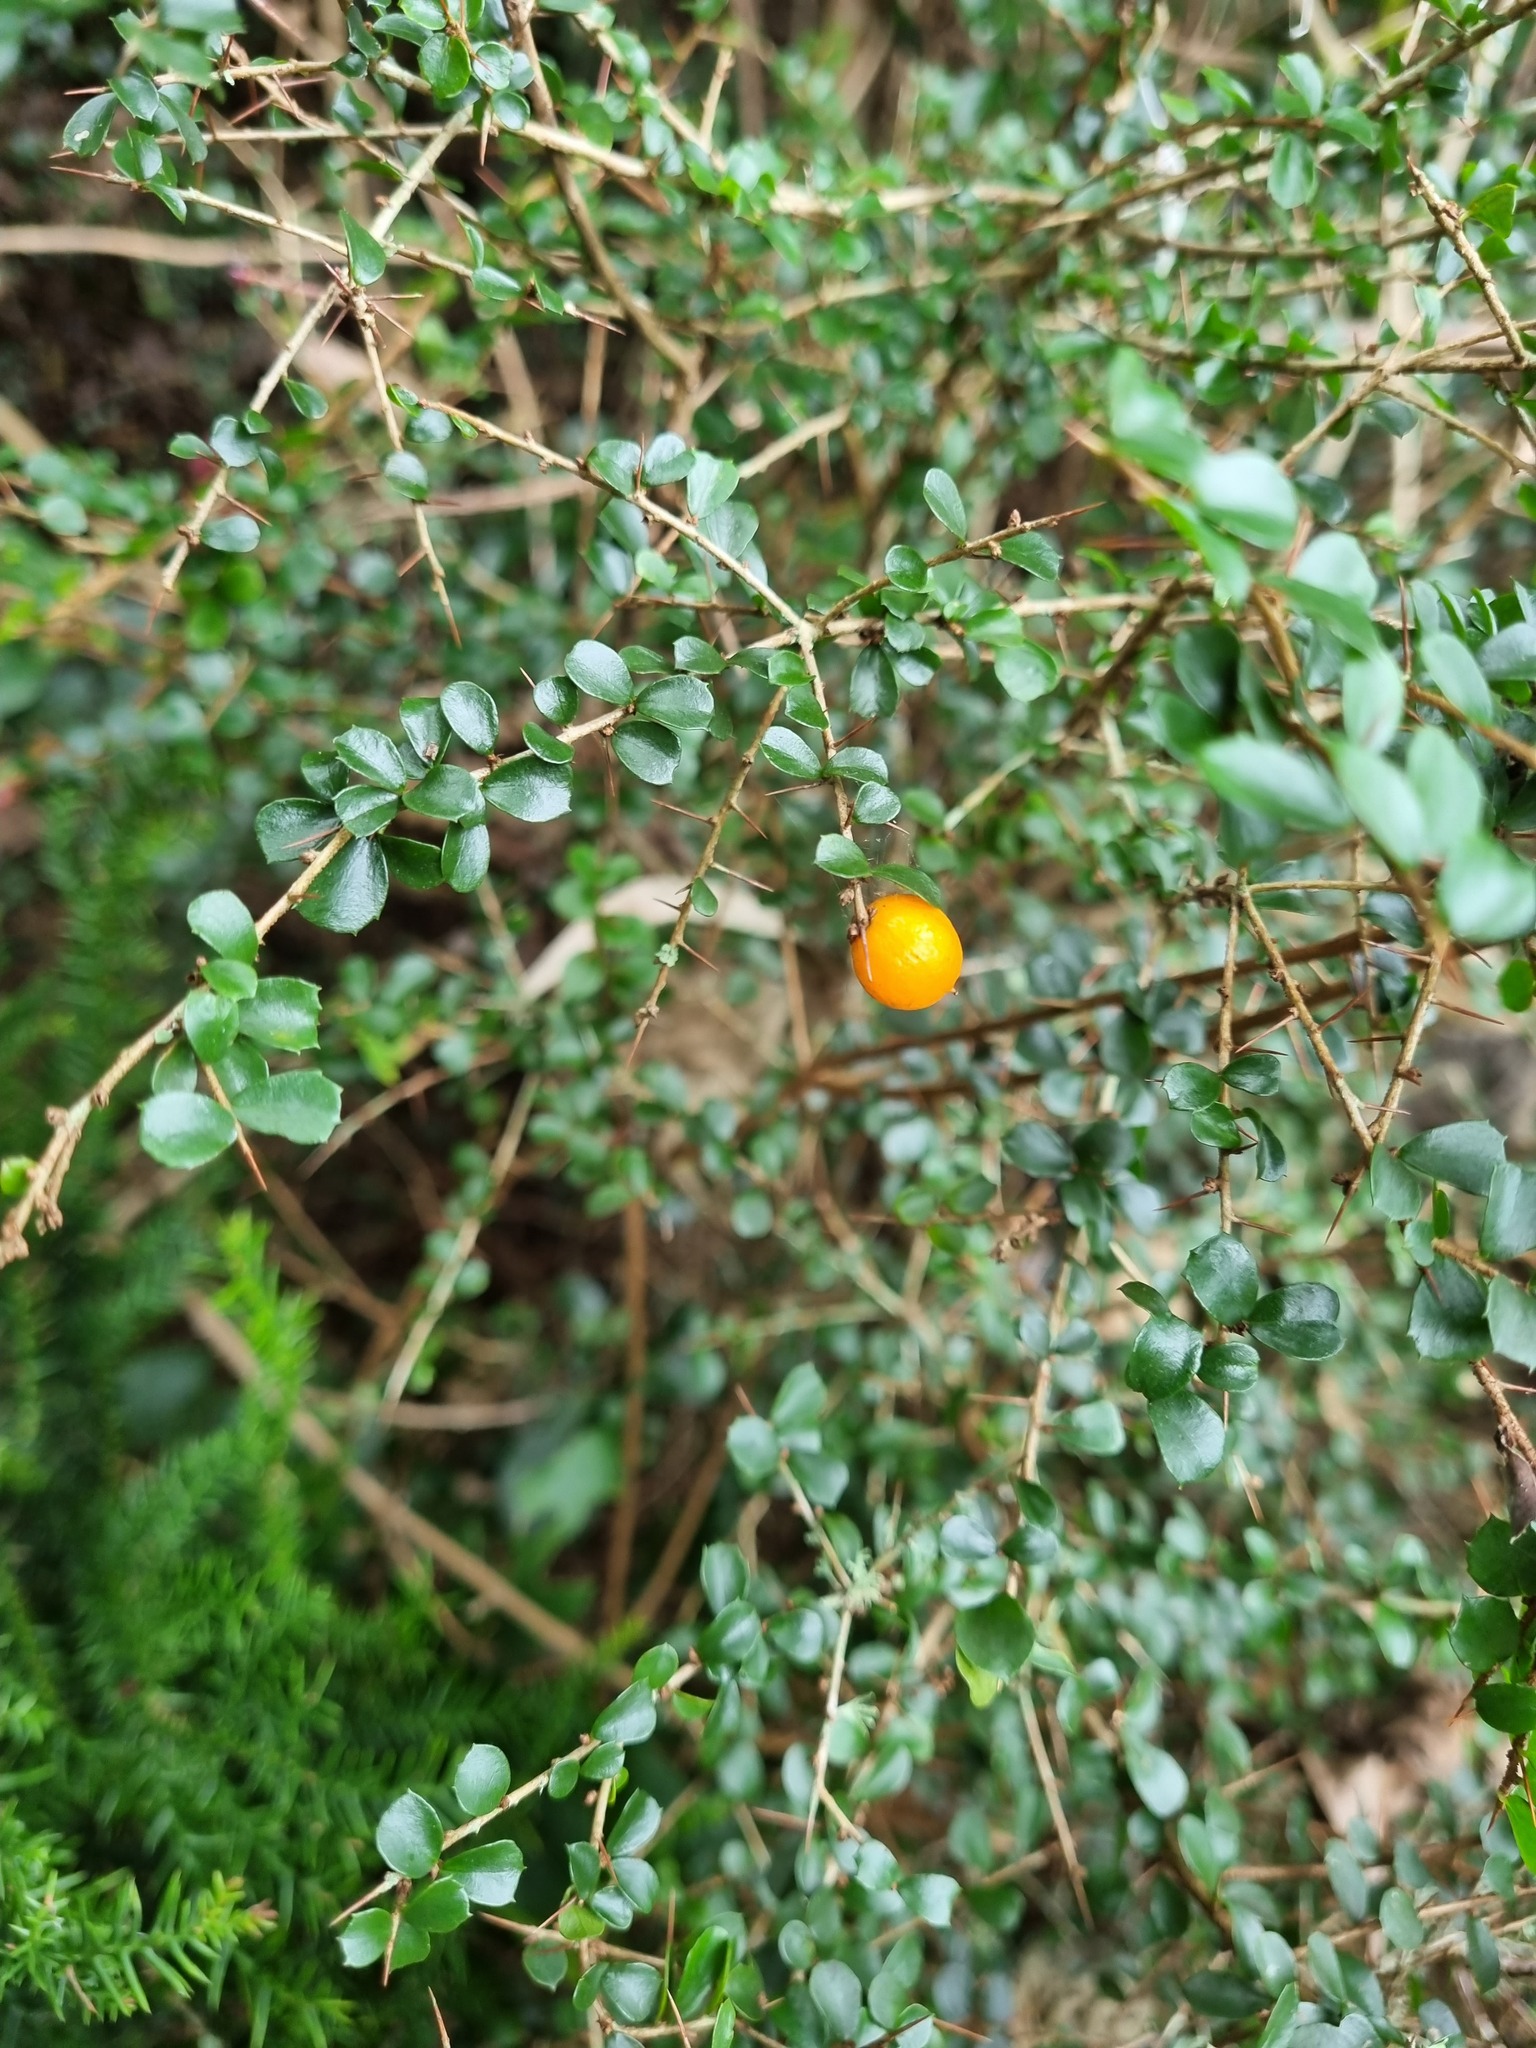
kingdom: Plantae
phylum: Tracheophyta
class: Magnoliopsida
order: Apiales
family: Pittosporaceae
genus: Pittosporum
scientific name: Pittosporum multiflorum
